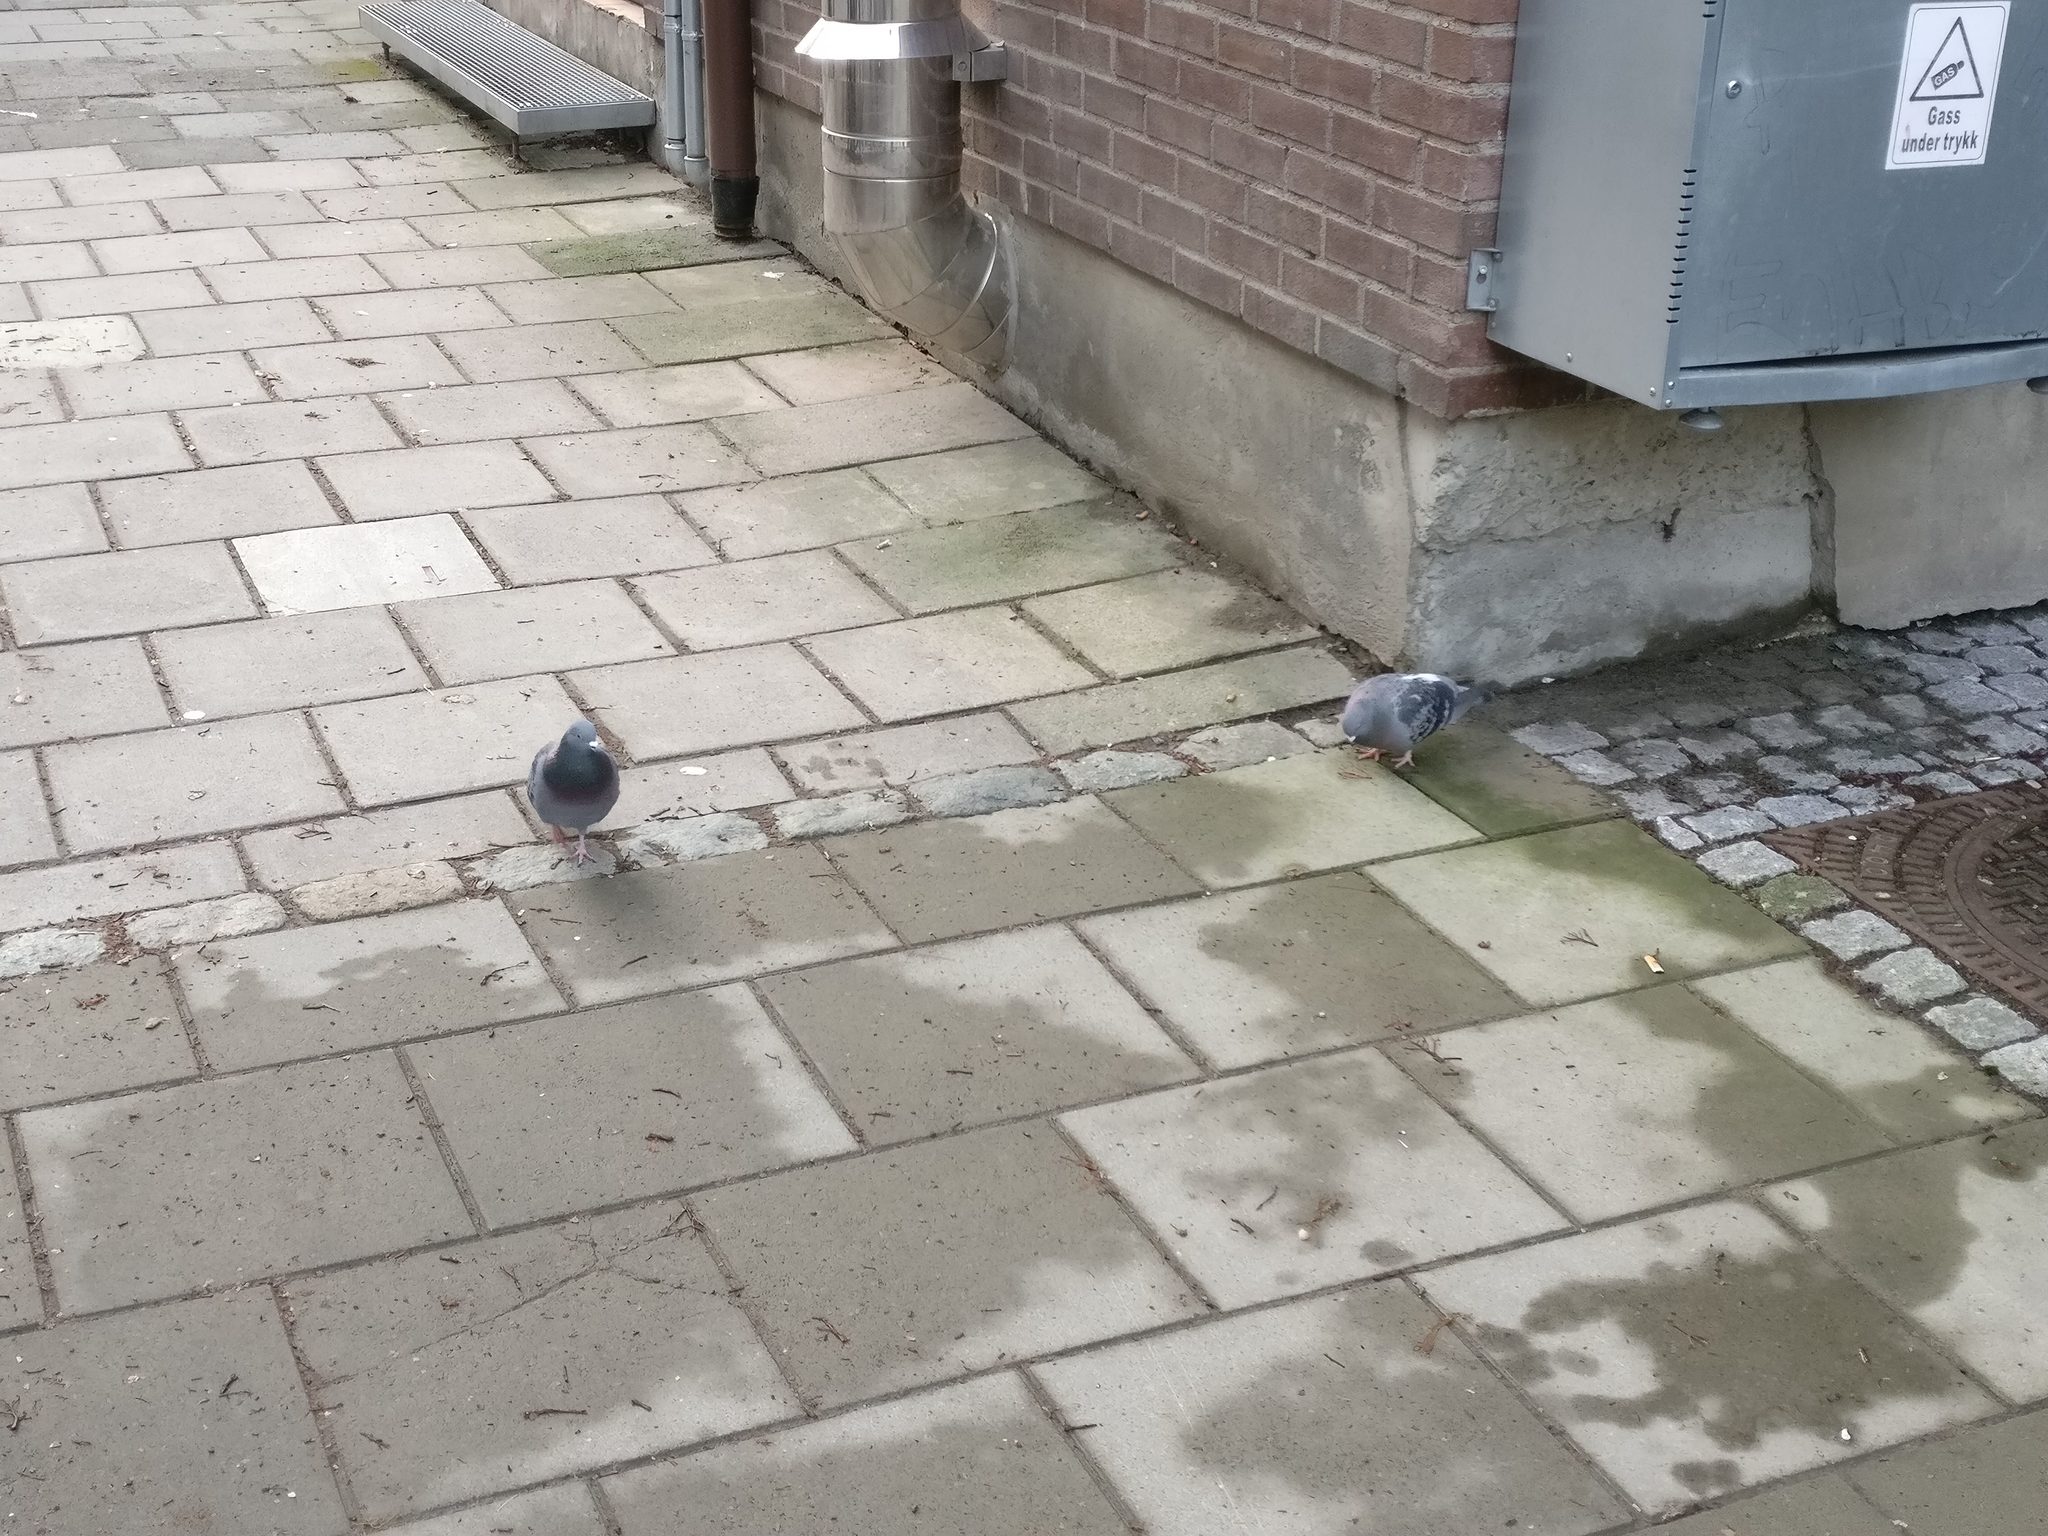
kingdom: Animalia
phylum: Chordata
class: Aves
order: Columbiformes
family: Columbidae
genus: Columba
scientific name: Columba livia
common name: Rock pigeon
